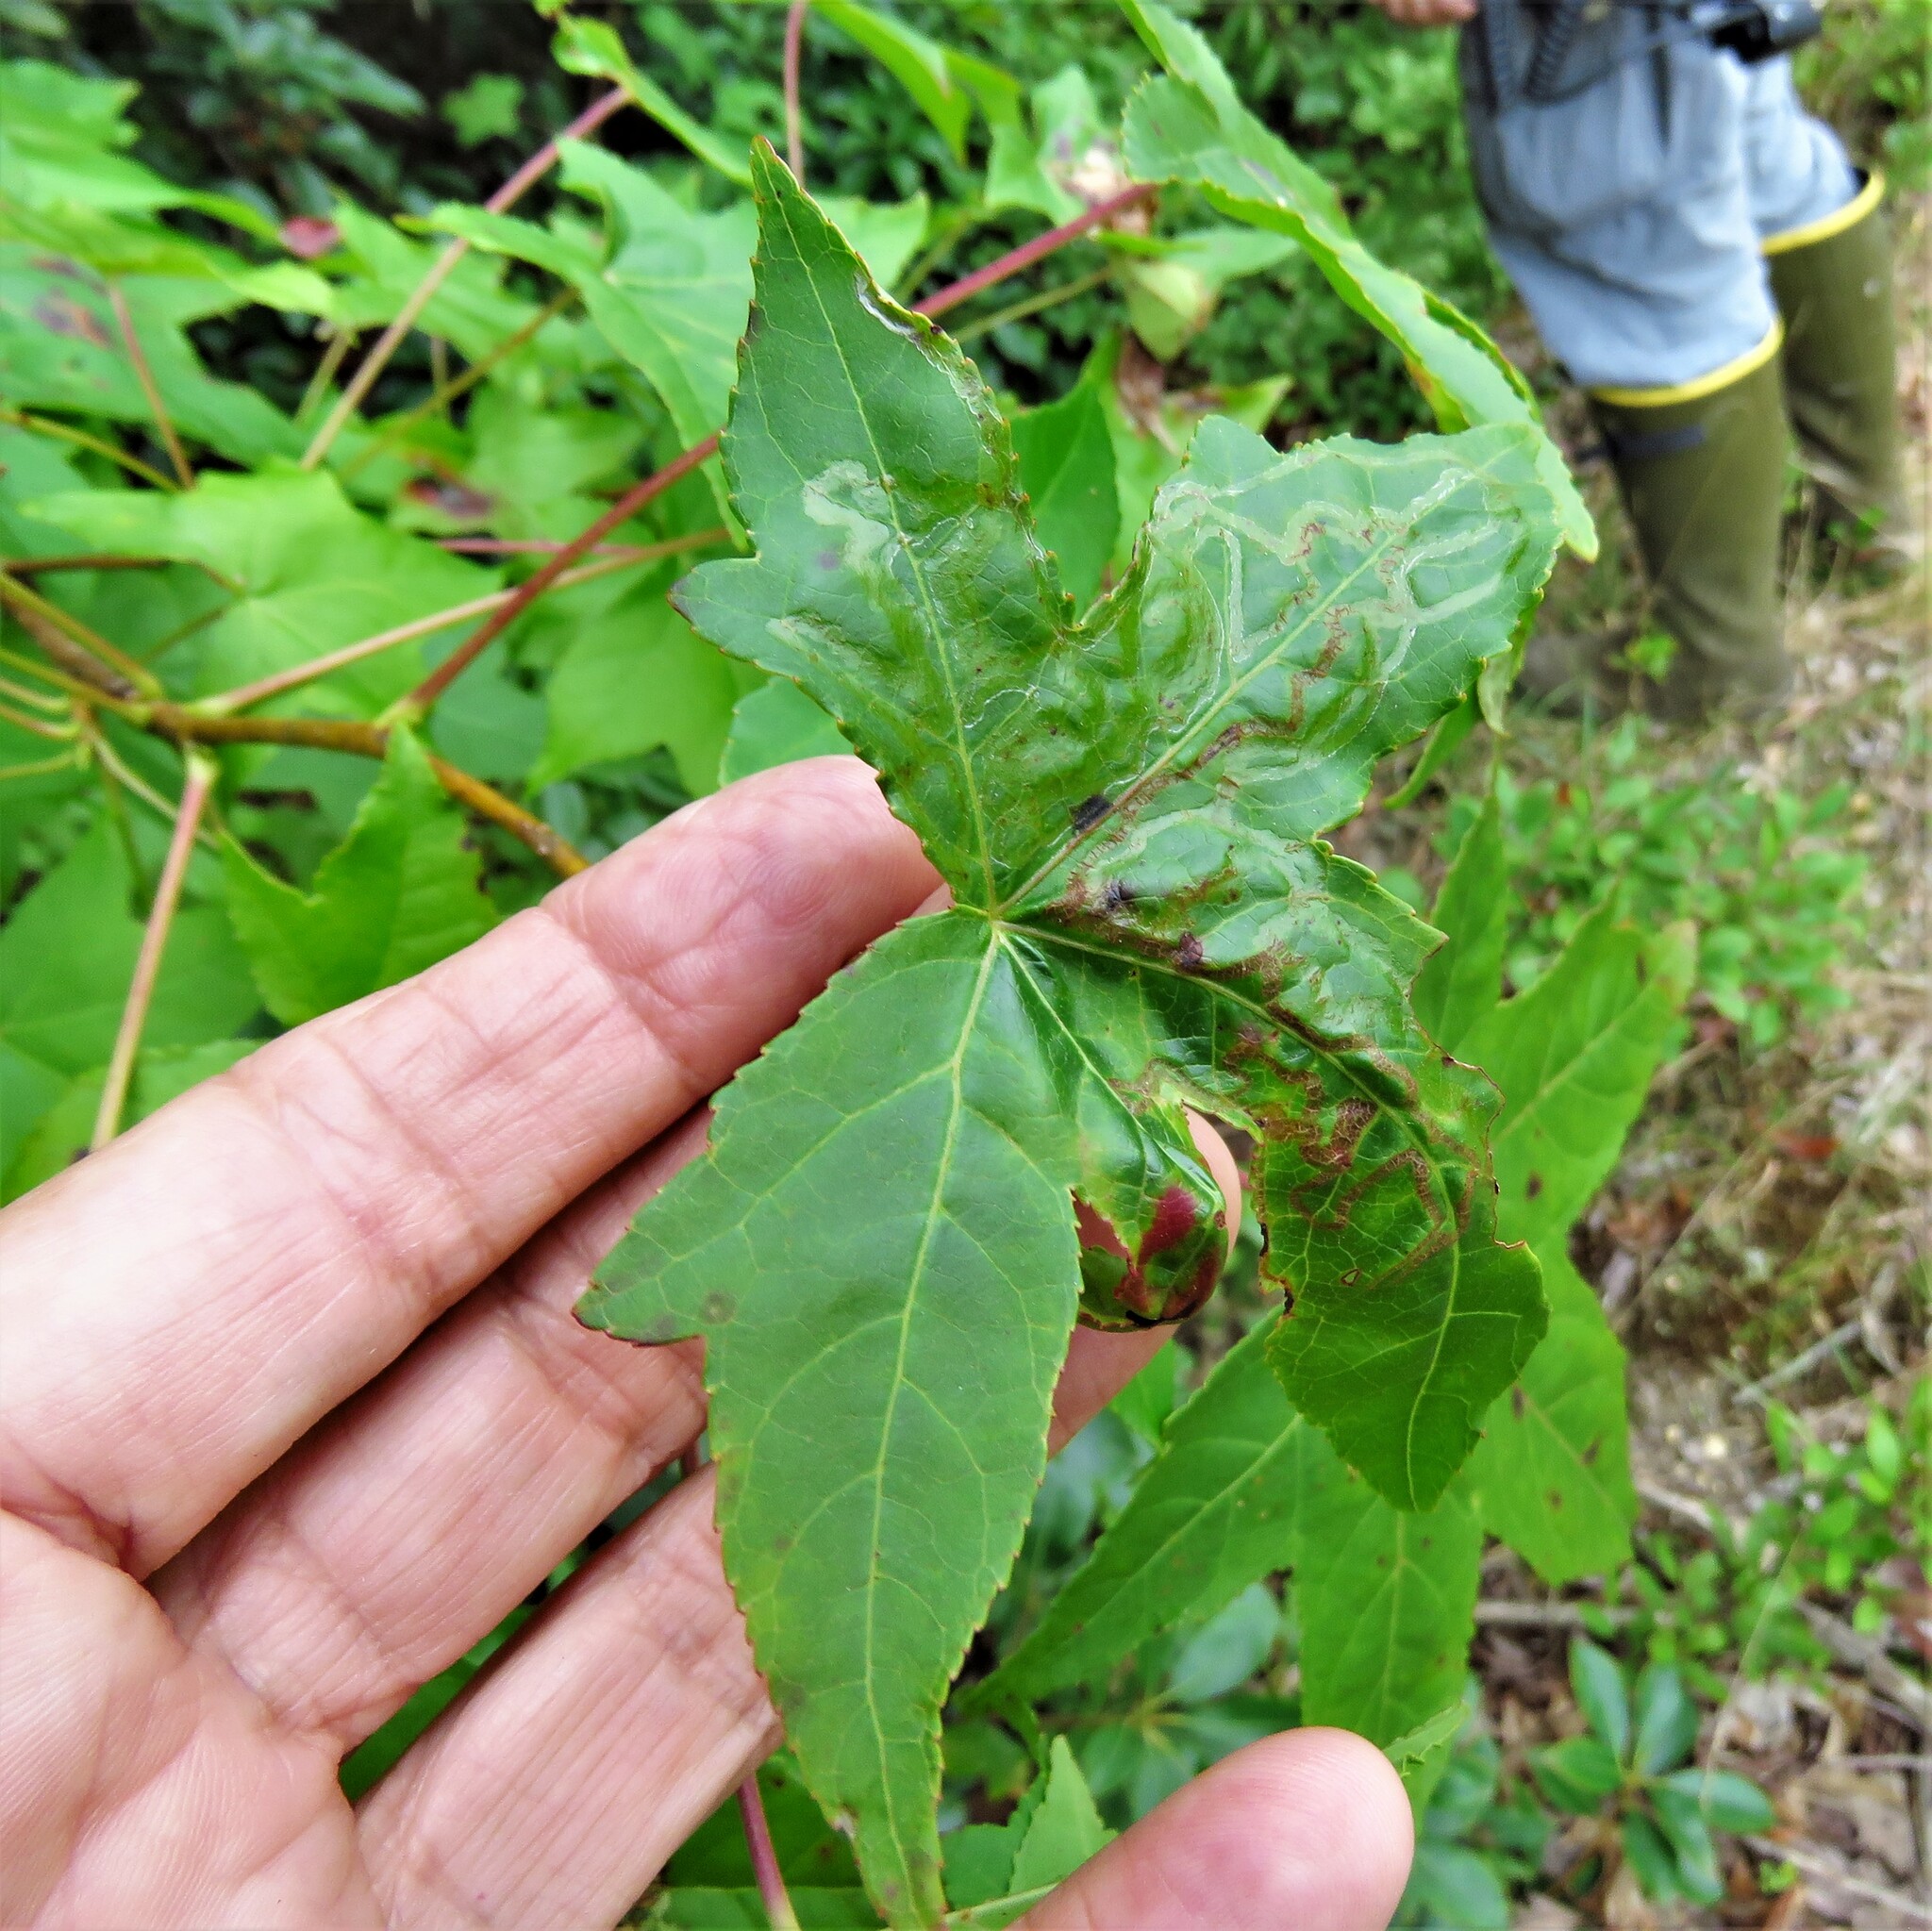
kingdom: Plantae
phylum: Tracheophyta
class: Magnoliopsida
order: Saxifragales
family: Altingiaceae
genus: Liquidambar
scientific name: Liquidambar styraciflua
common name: Sweet gum
